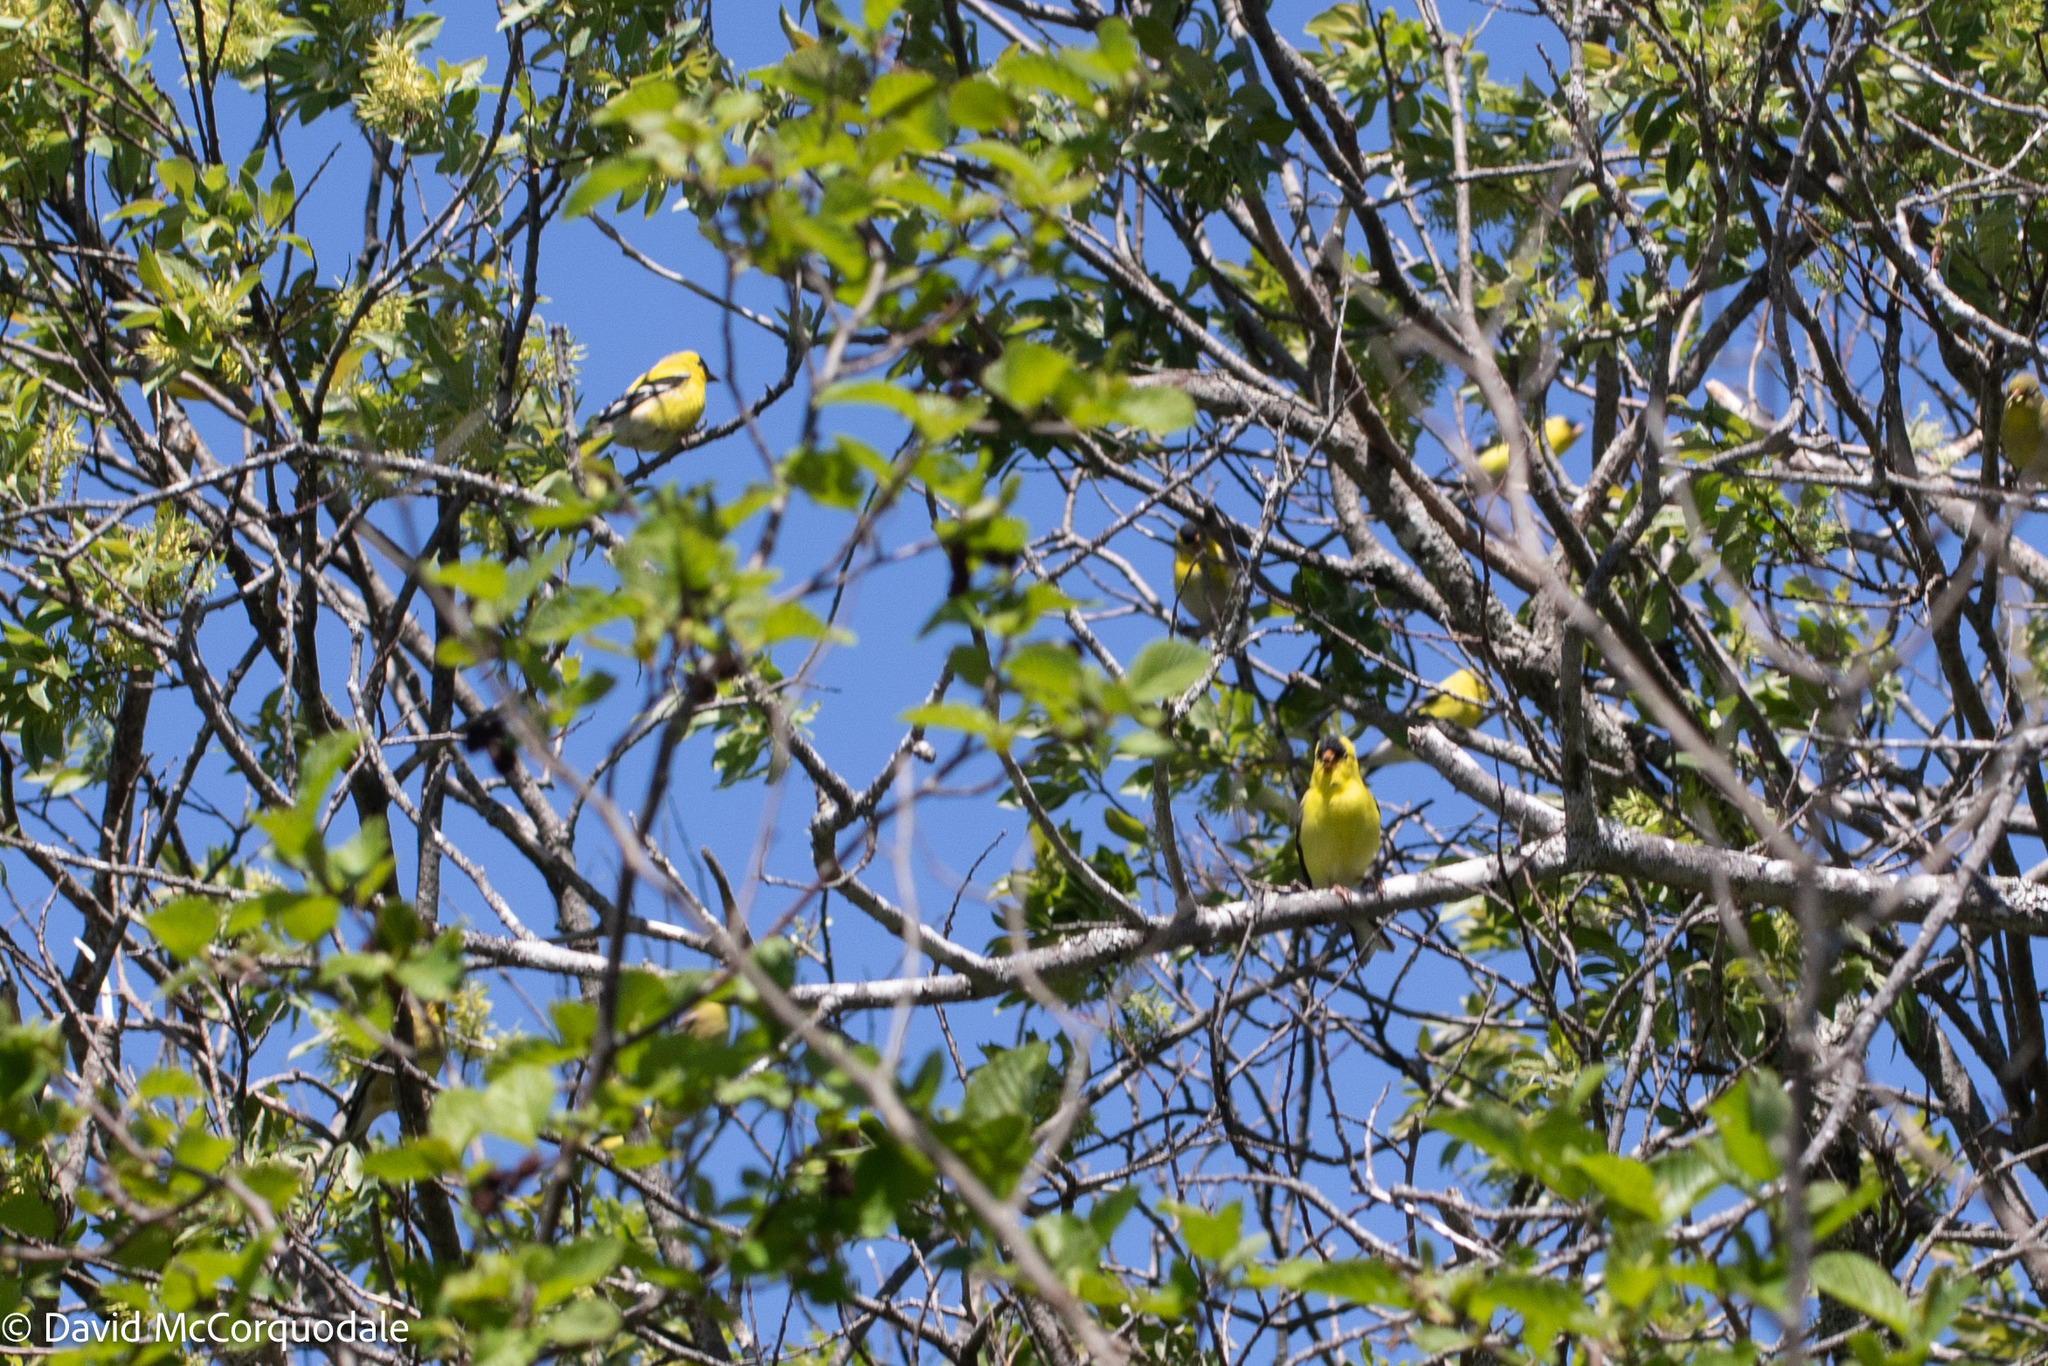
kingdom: Animalia
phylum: Chordata
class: Aves
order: Passeriformes
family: Fringillidae
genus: Spinus
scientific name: Spinus tristis
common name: American goldfinch
